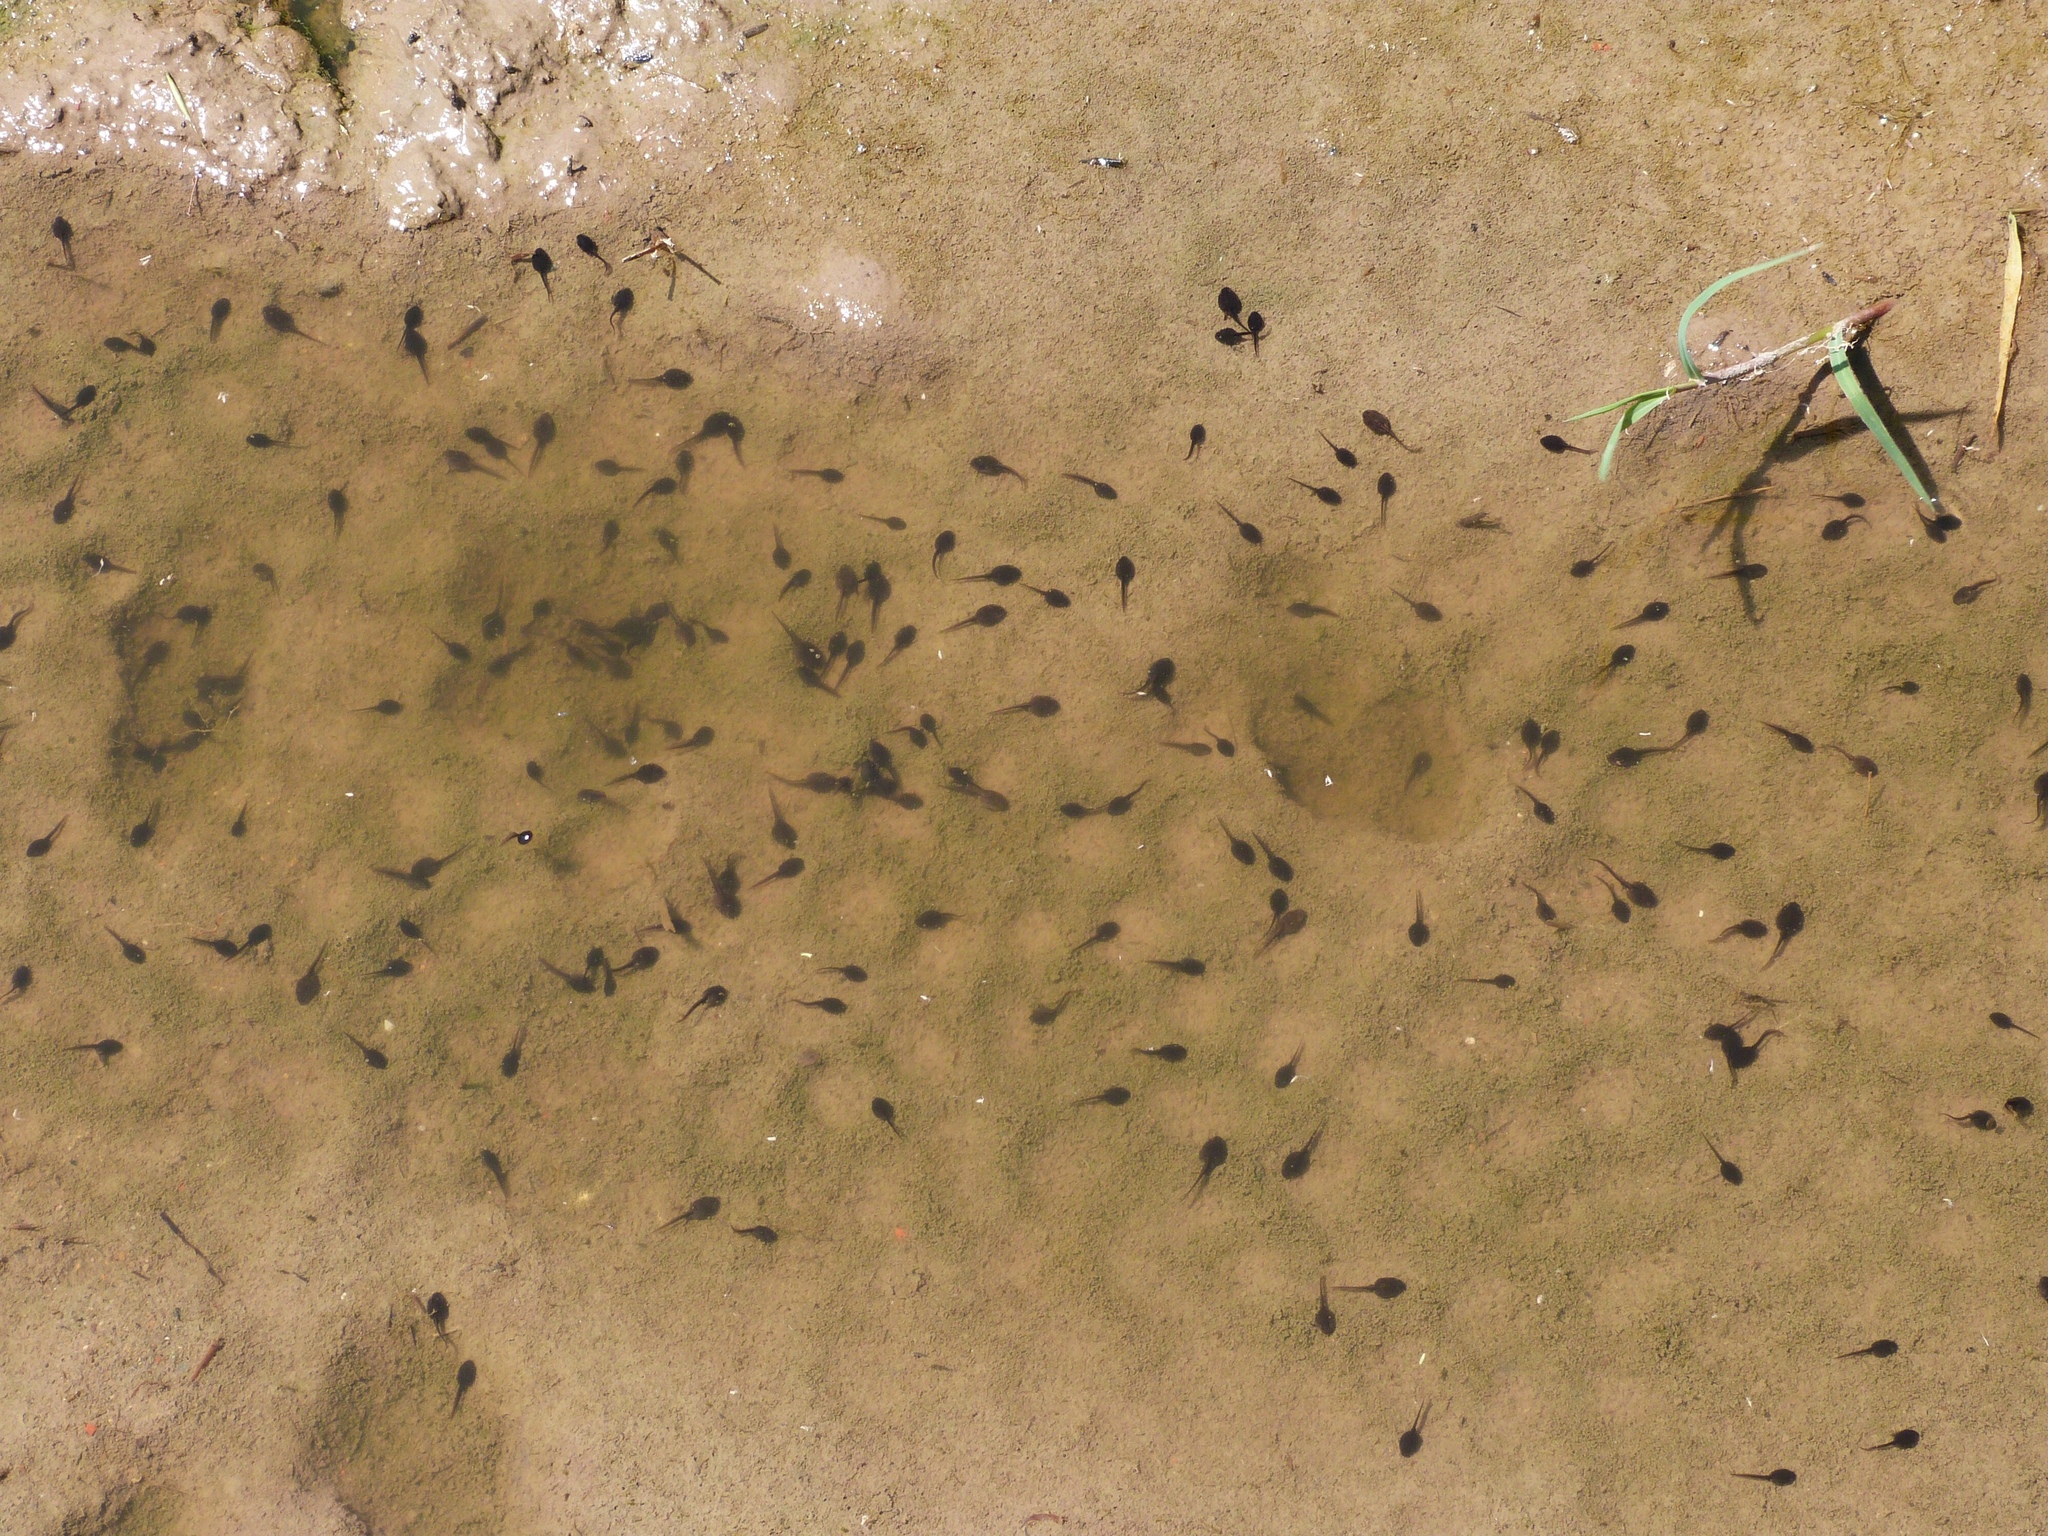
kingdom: Animalia
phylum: Chordata
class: Amphibia
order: Anura
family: Bufonidae
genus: Epidalea
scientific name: Epidalea calamita
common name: Natterjack toad
